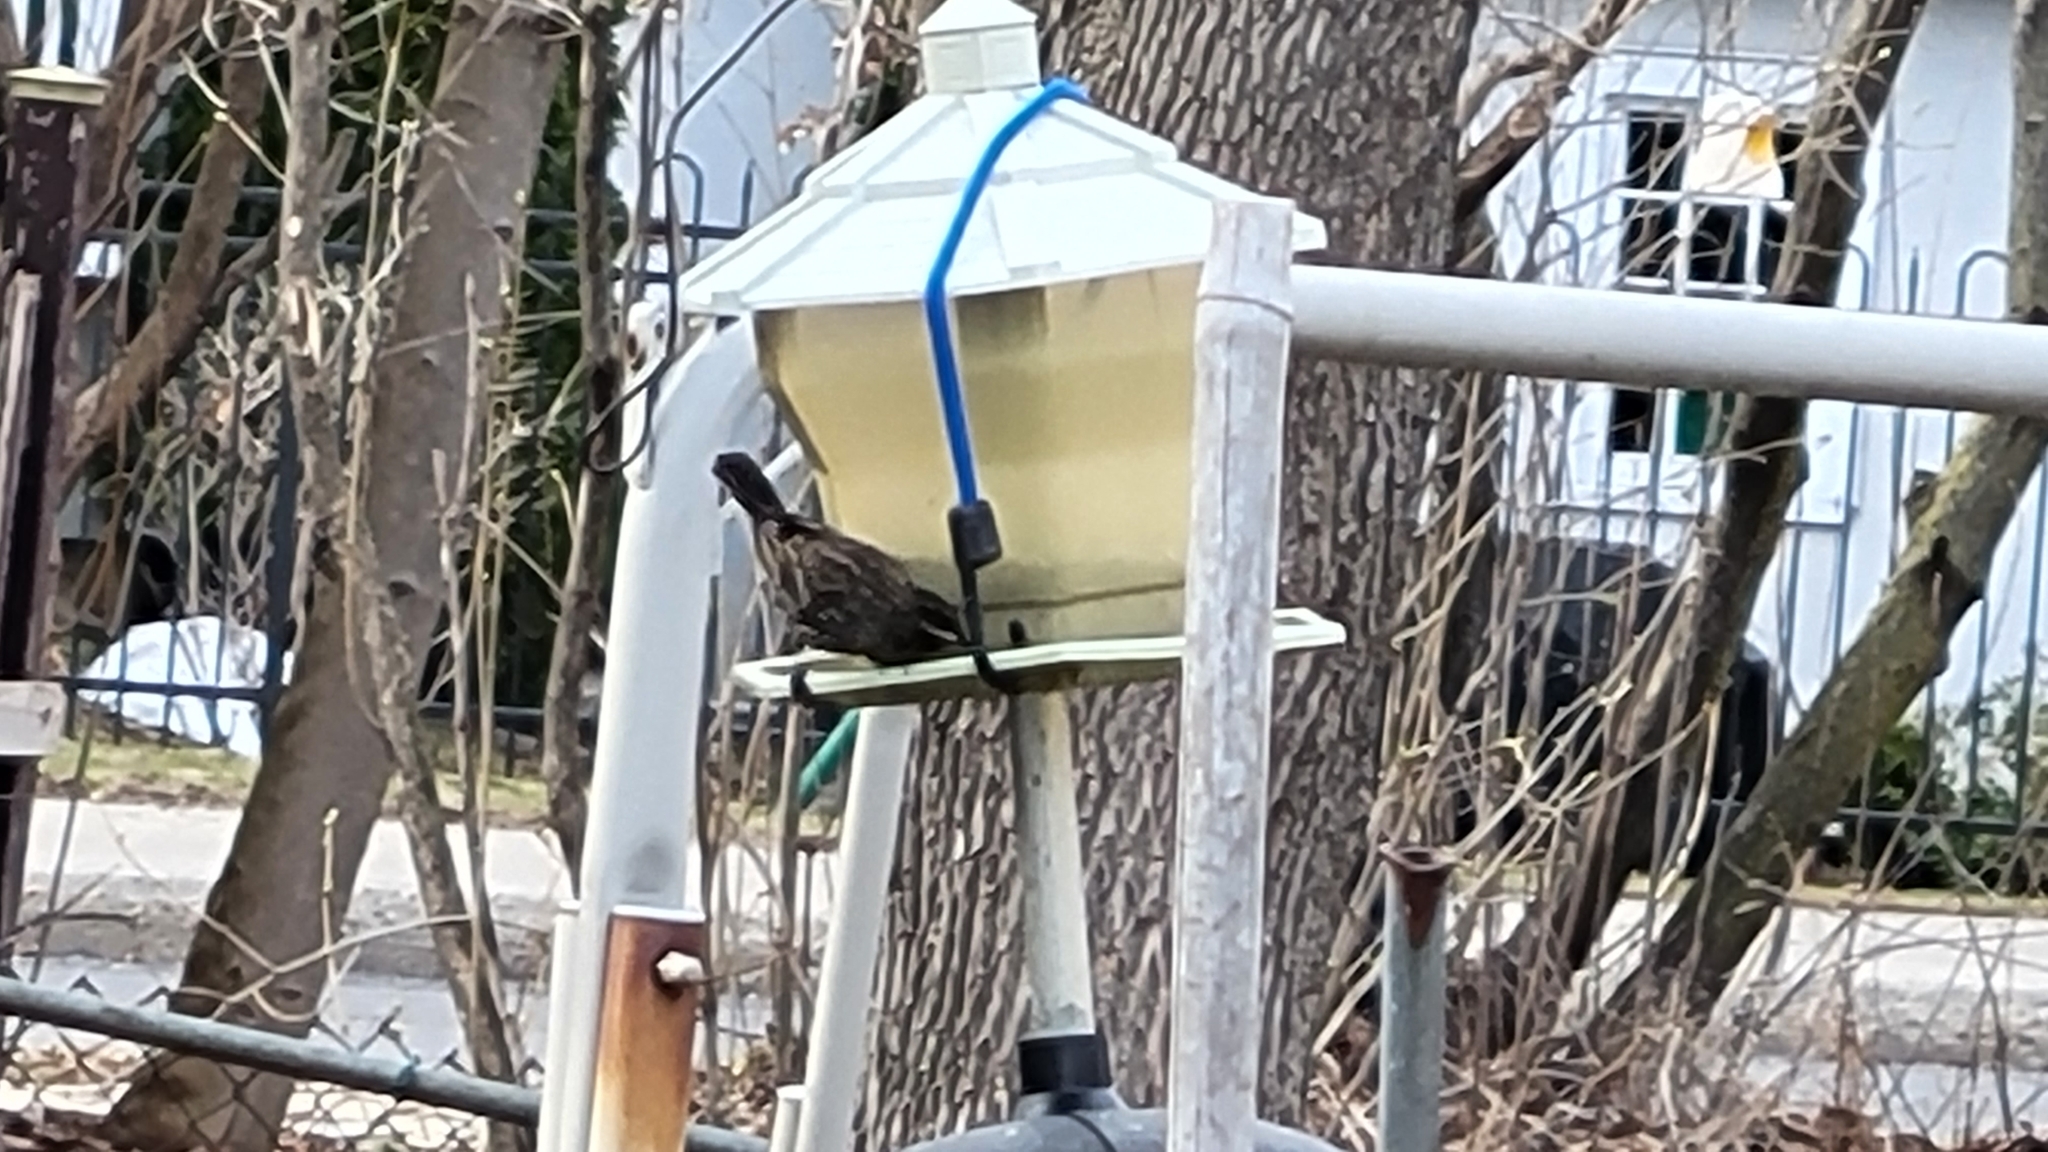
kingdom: Animalia
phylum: Chordata
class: Aves
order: Passeriformes
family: Icteridae
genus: Agelaius
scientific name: Agelaius phoeniceus
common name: Red-winged blackbird
